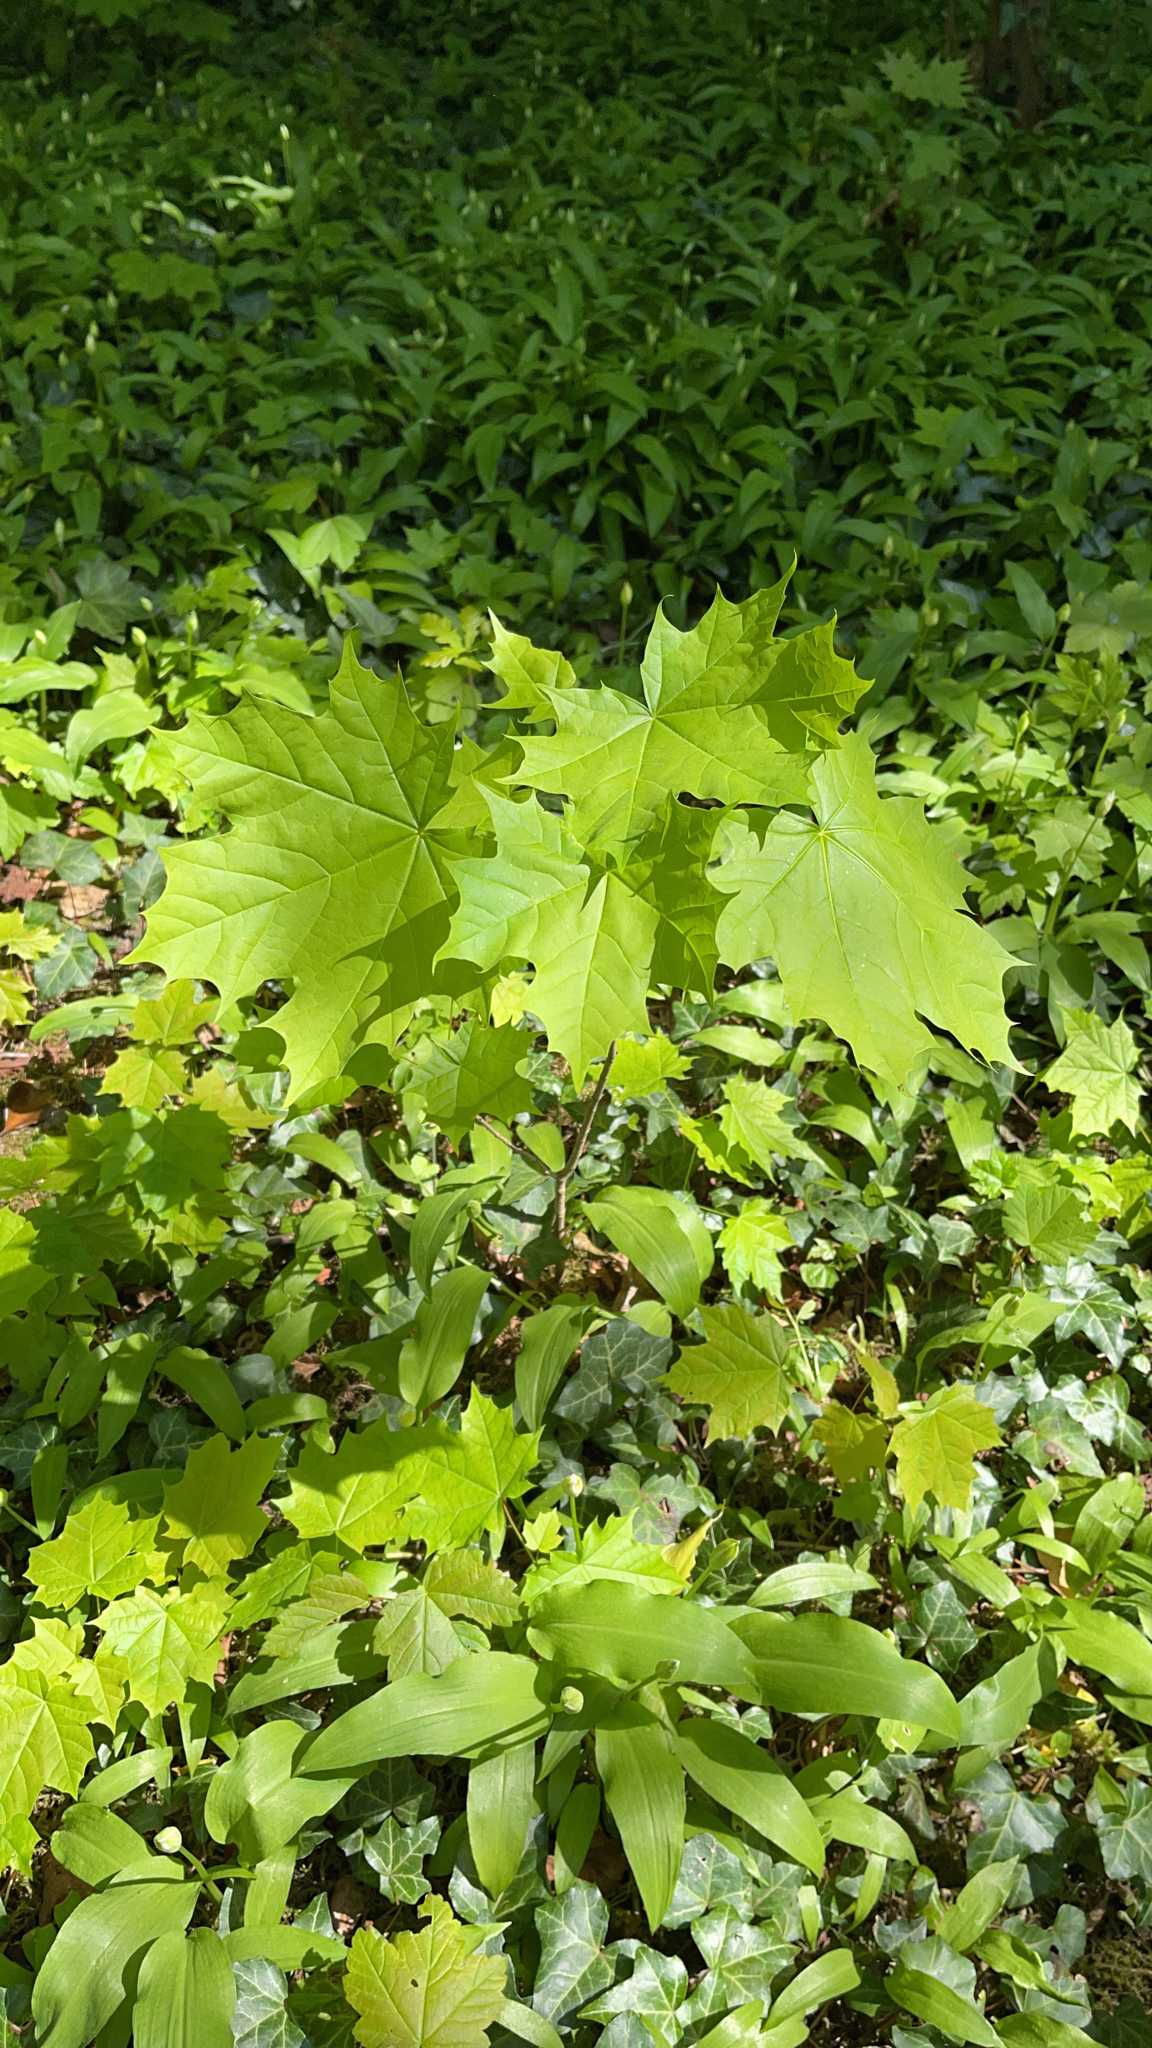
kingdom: Plantae
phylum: Tracheophyta
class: Magnoliopsida
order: Sapindales
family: Sapindaceae
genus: Acer
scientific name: Acer platanoides
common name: Norway maple
